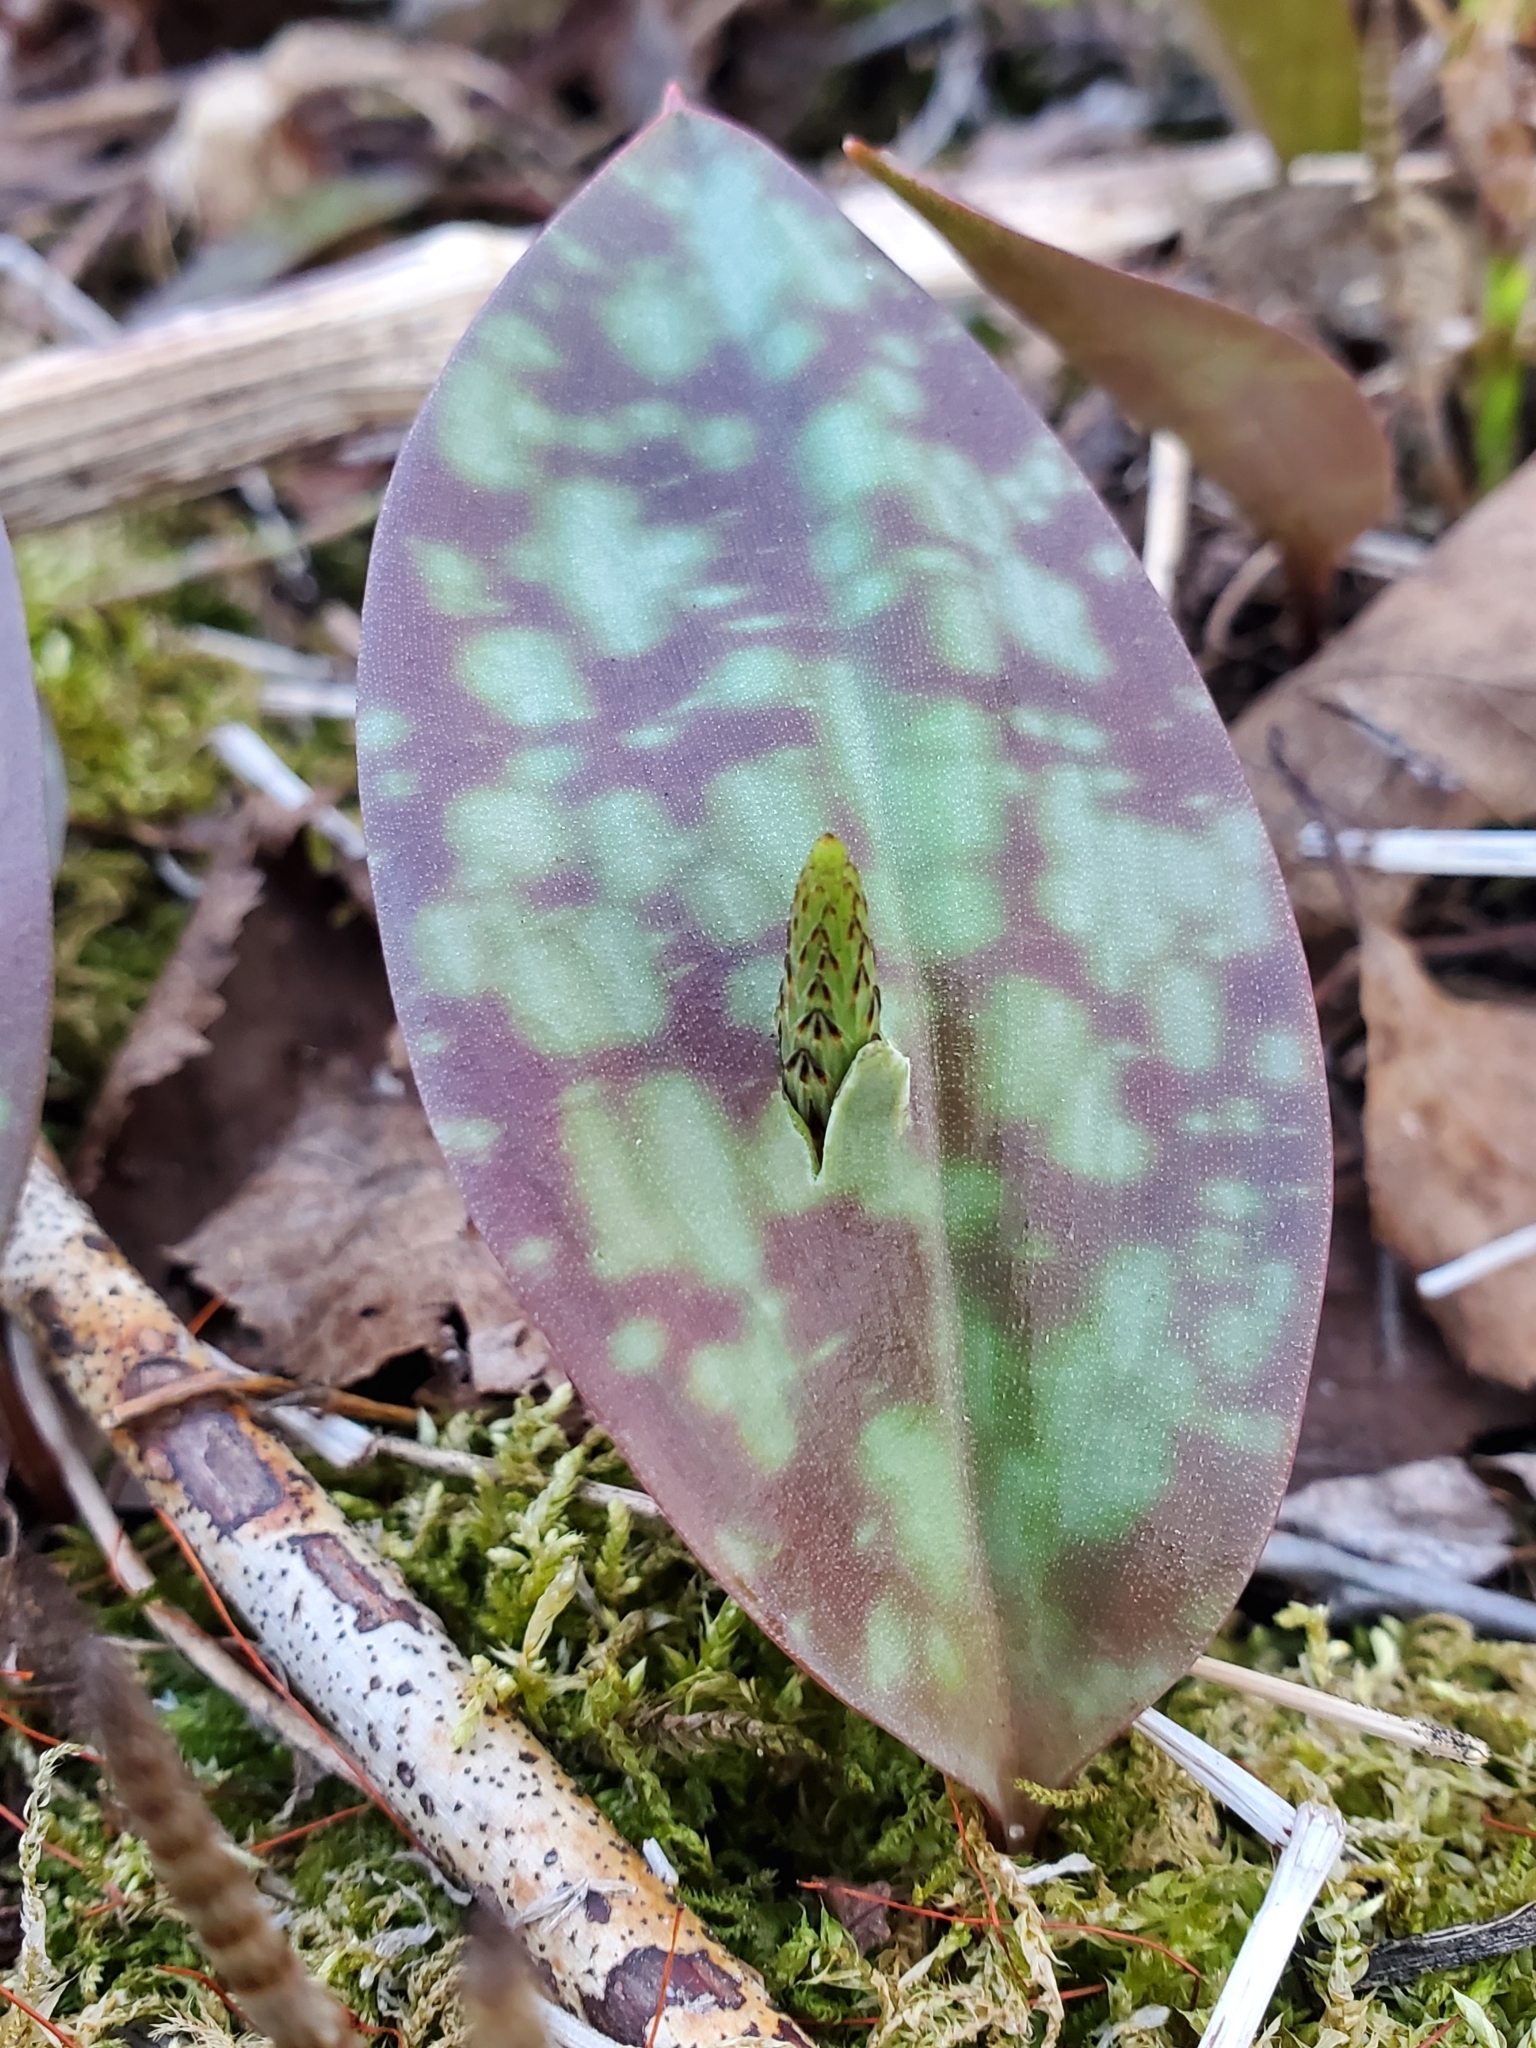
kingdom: Plantae
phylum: Tracheophyta
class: Liliopsida
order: Liliales
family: Liliaceae
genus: Erythronium
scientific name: Erythronium americanum
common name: Yellow adder's-tongue
